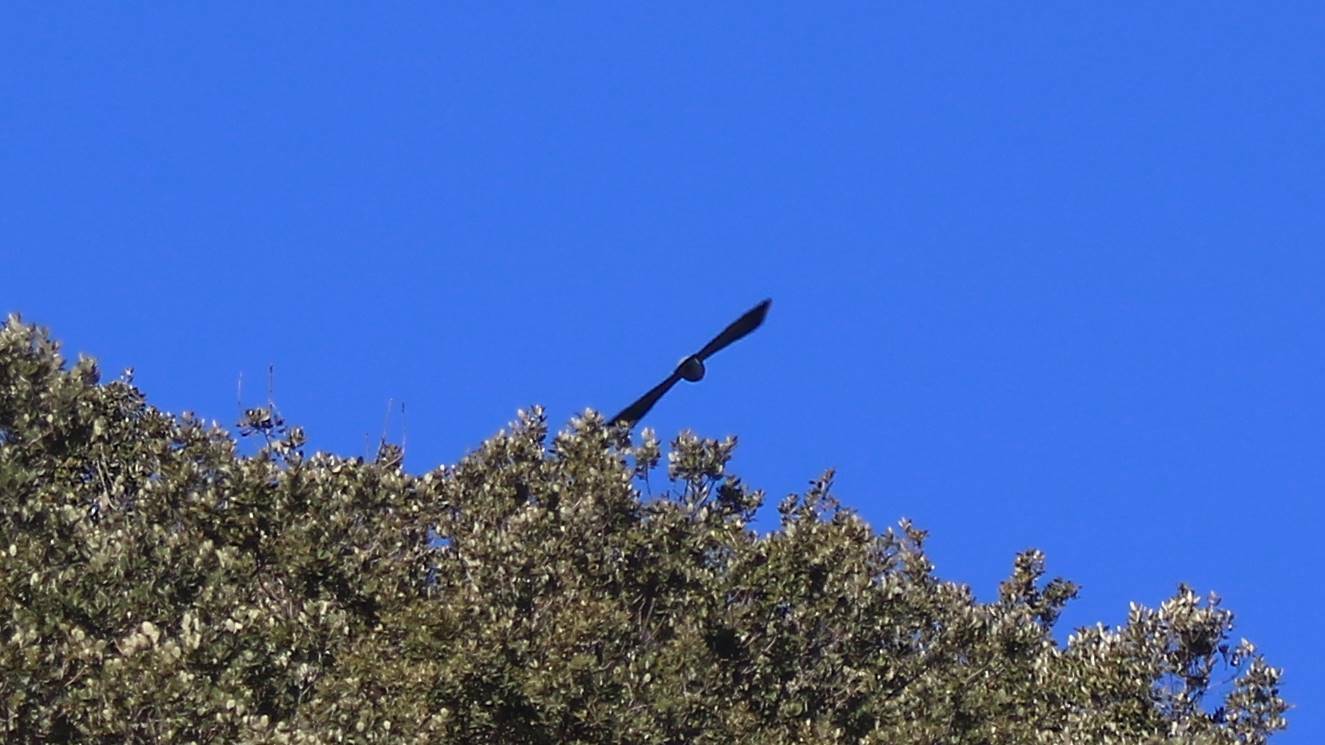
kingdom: Animalia
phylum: Chordata
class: Aves
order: Columbiformes
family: Columbidae
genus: Columba
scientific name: Columba livia
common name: Rock pigeon
